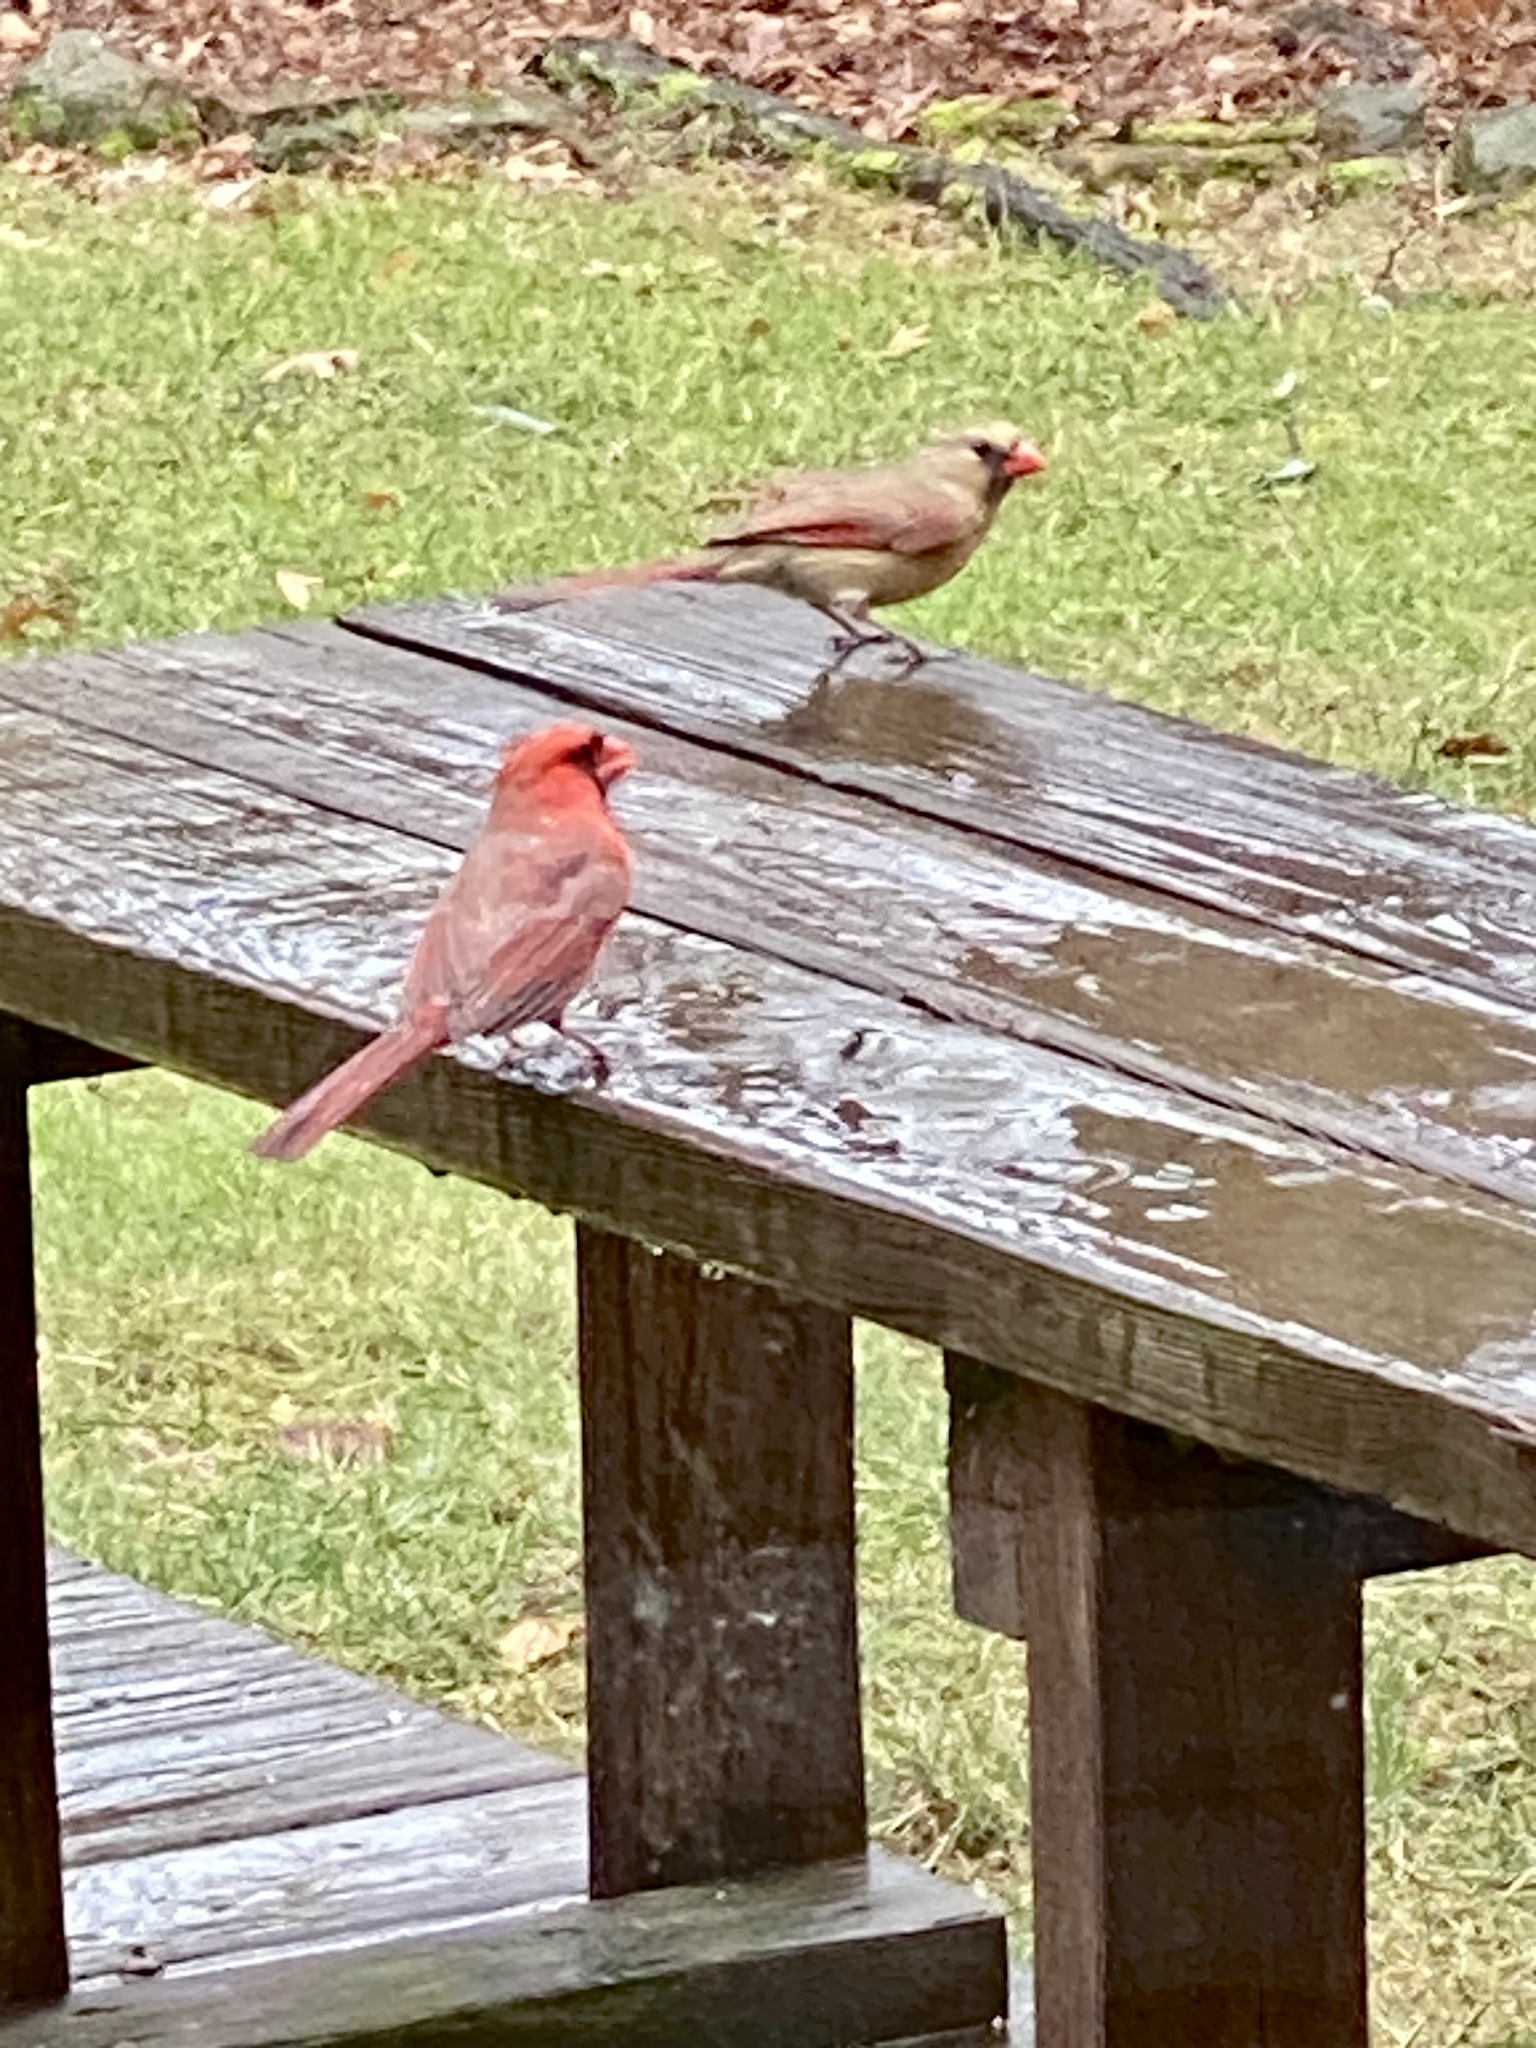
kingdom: Animalia
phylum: Chordata
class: Aves
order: Passeriformes
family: Cardinalidae
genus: Cardinalis
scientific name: Cardinalis cardinalis
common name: Northern cardinal
